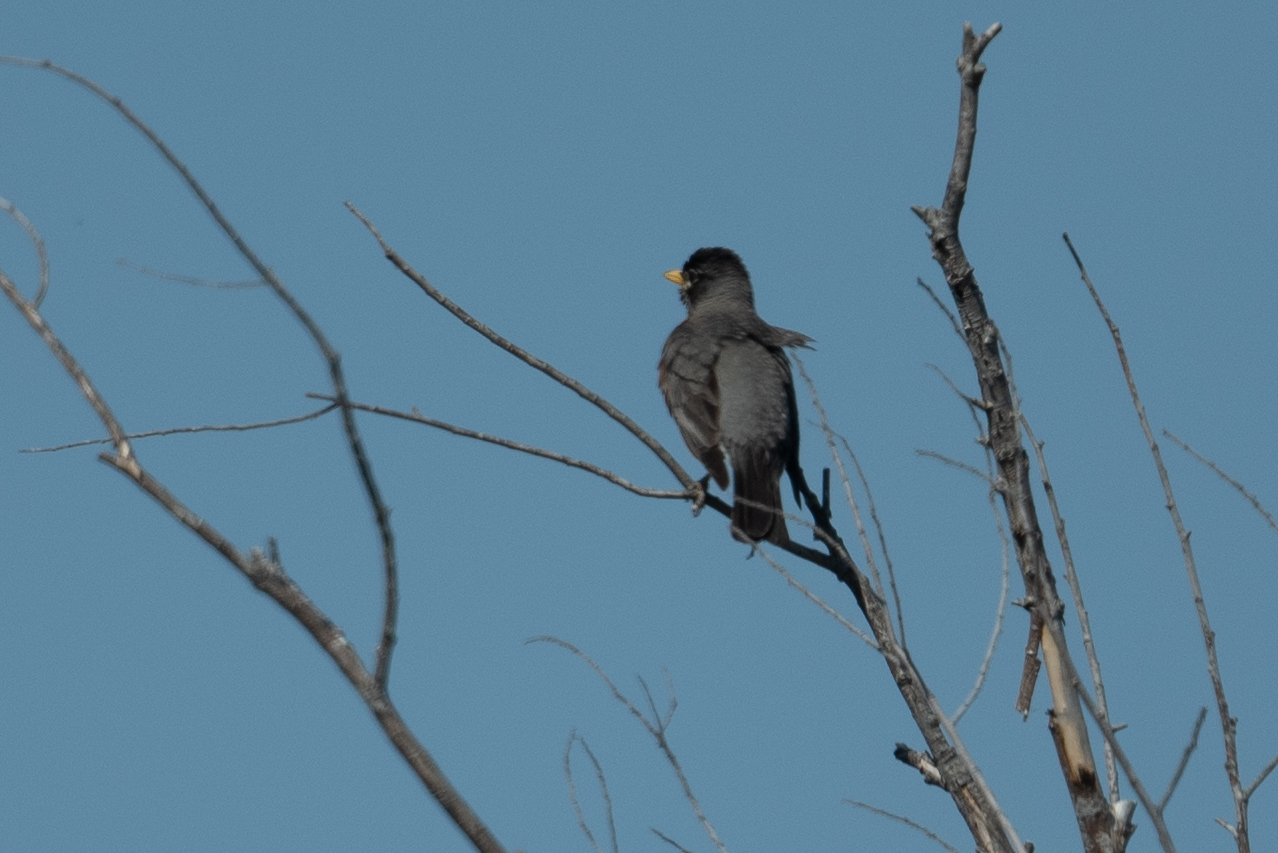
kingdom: Animalia
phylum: Chordata
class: Aves
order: Passeriformes
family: Turdidae
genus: Turdus
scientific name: Turdus migratorius
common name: American robin
